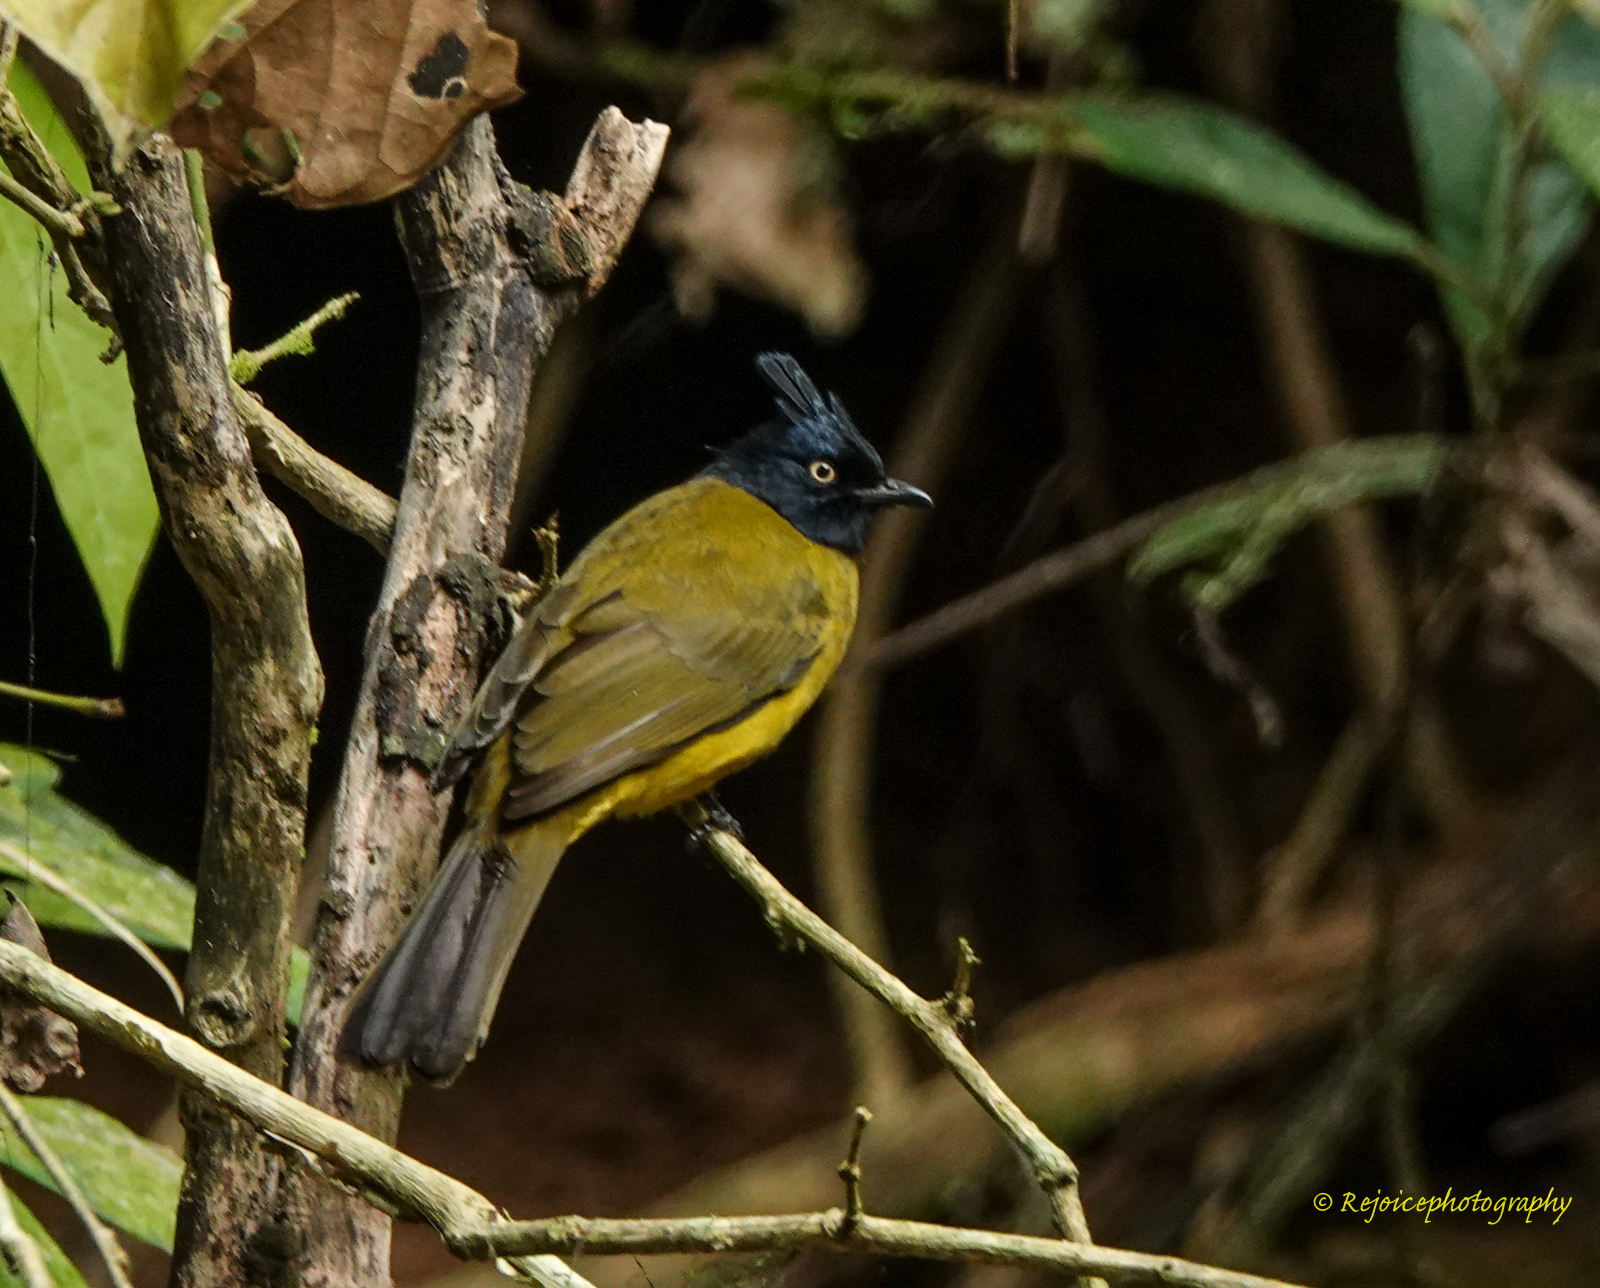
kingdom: Animalia
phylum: Chordata
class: Aves
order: Passeriformes
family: Pycnonotidae
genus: Pycnonotus
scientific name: Pycnonotus flaviventris
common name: Black-crested bulbul
